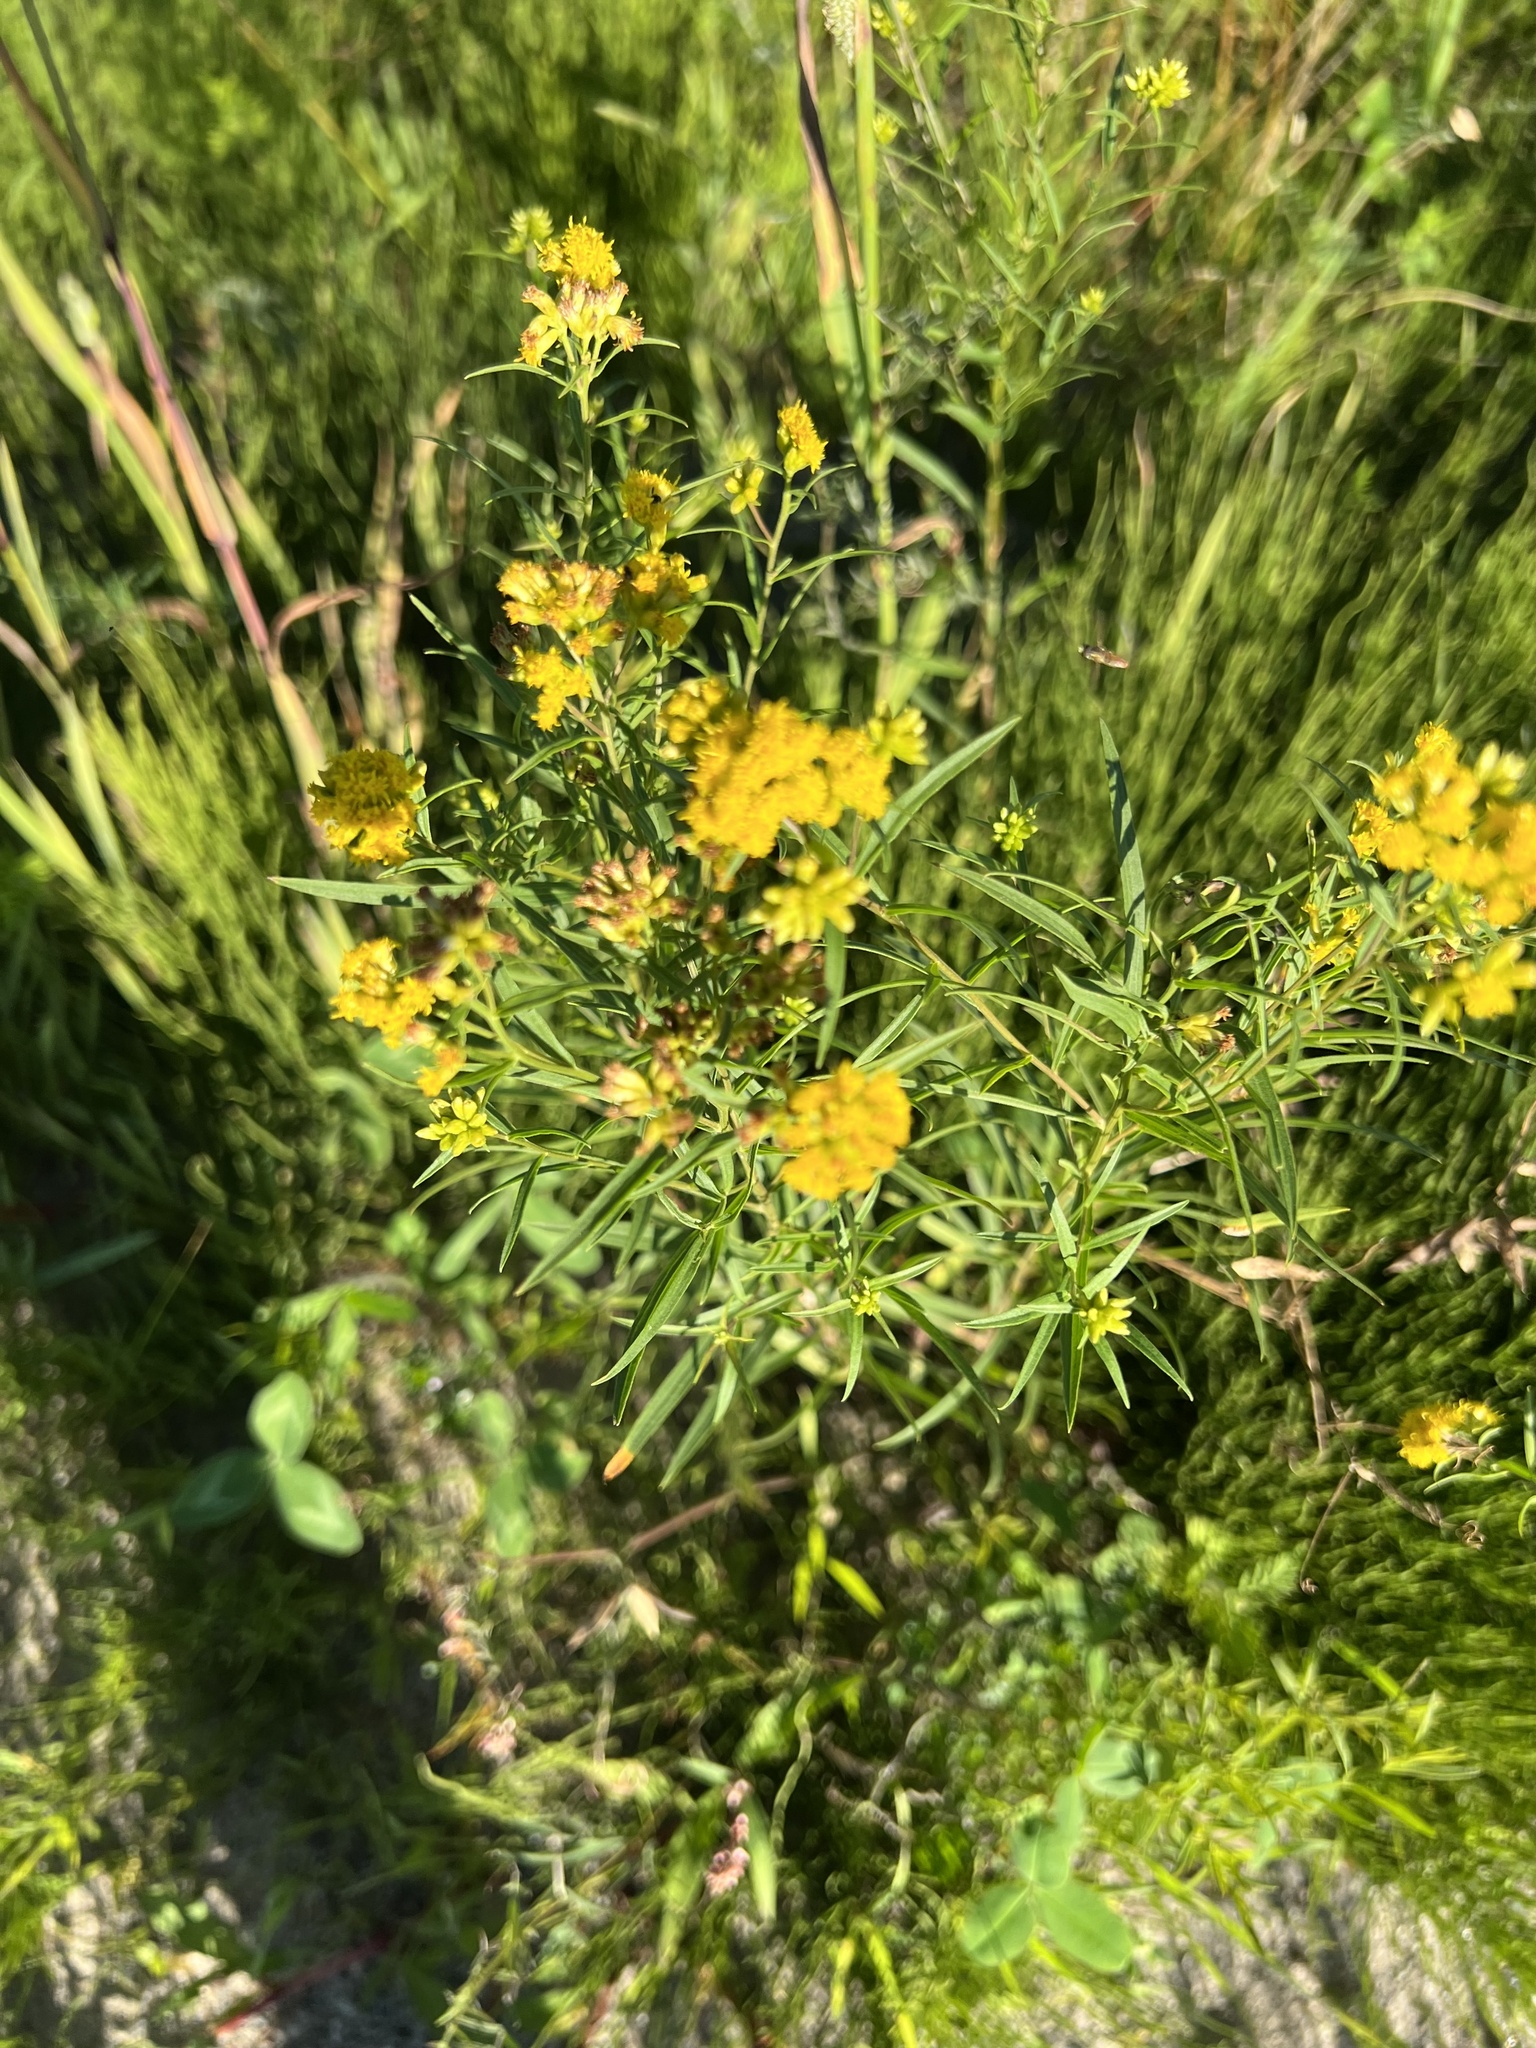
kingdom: Plantae
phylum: Tracheophyta
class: Magnoliopsida
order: Asterales
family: Asteraceae
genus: Euthamia
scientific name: Euthamia graminifolia
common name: Common goldentop
